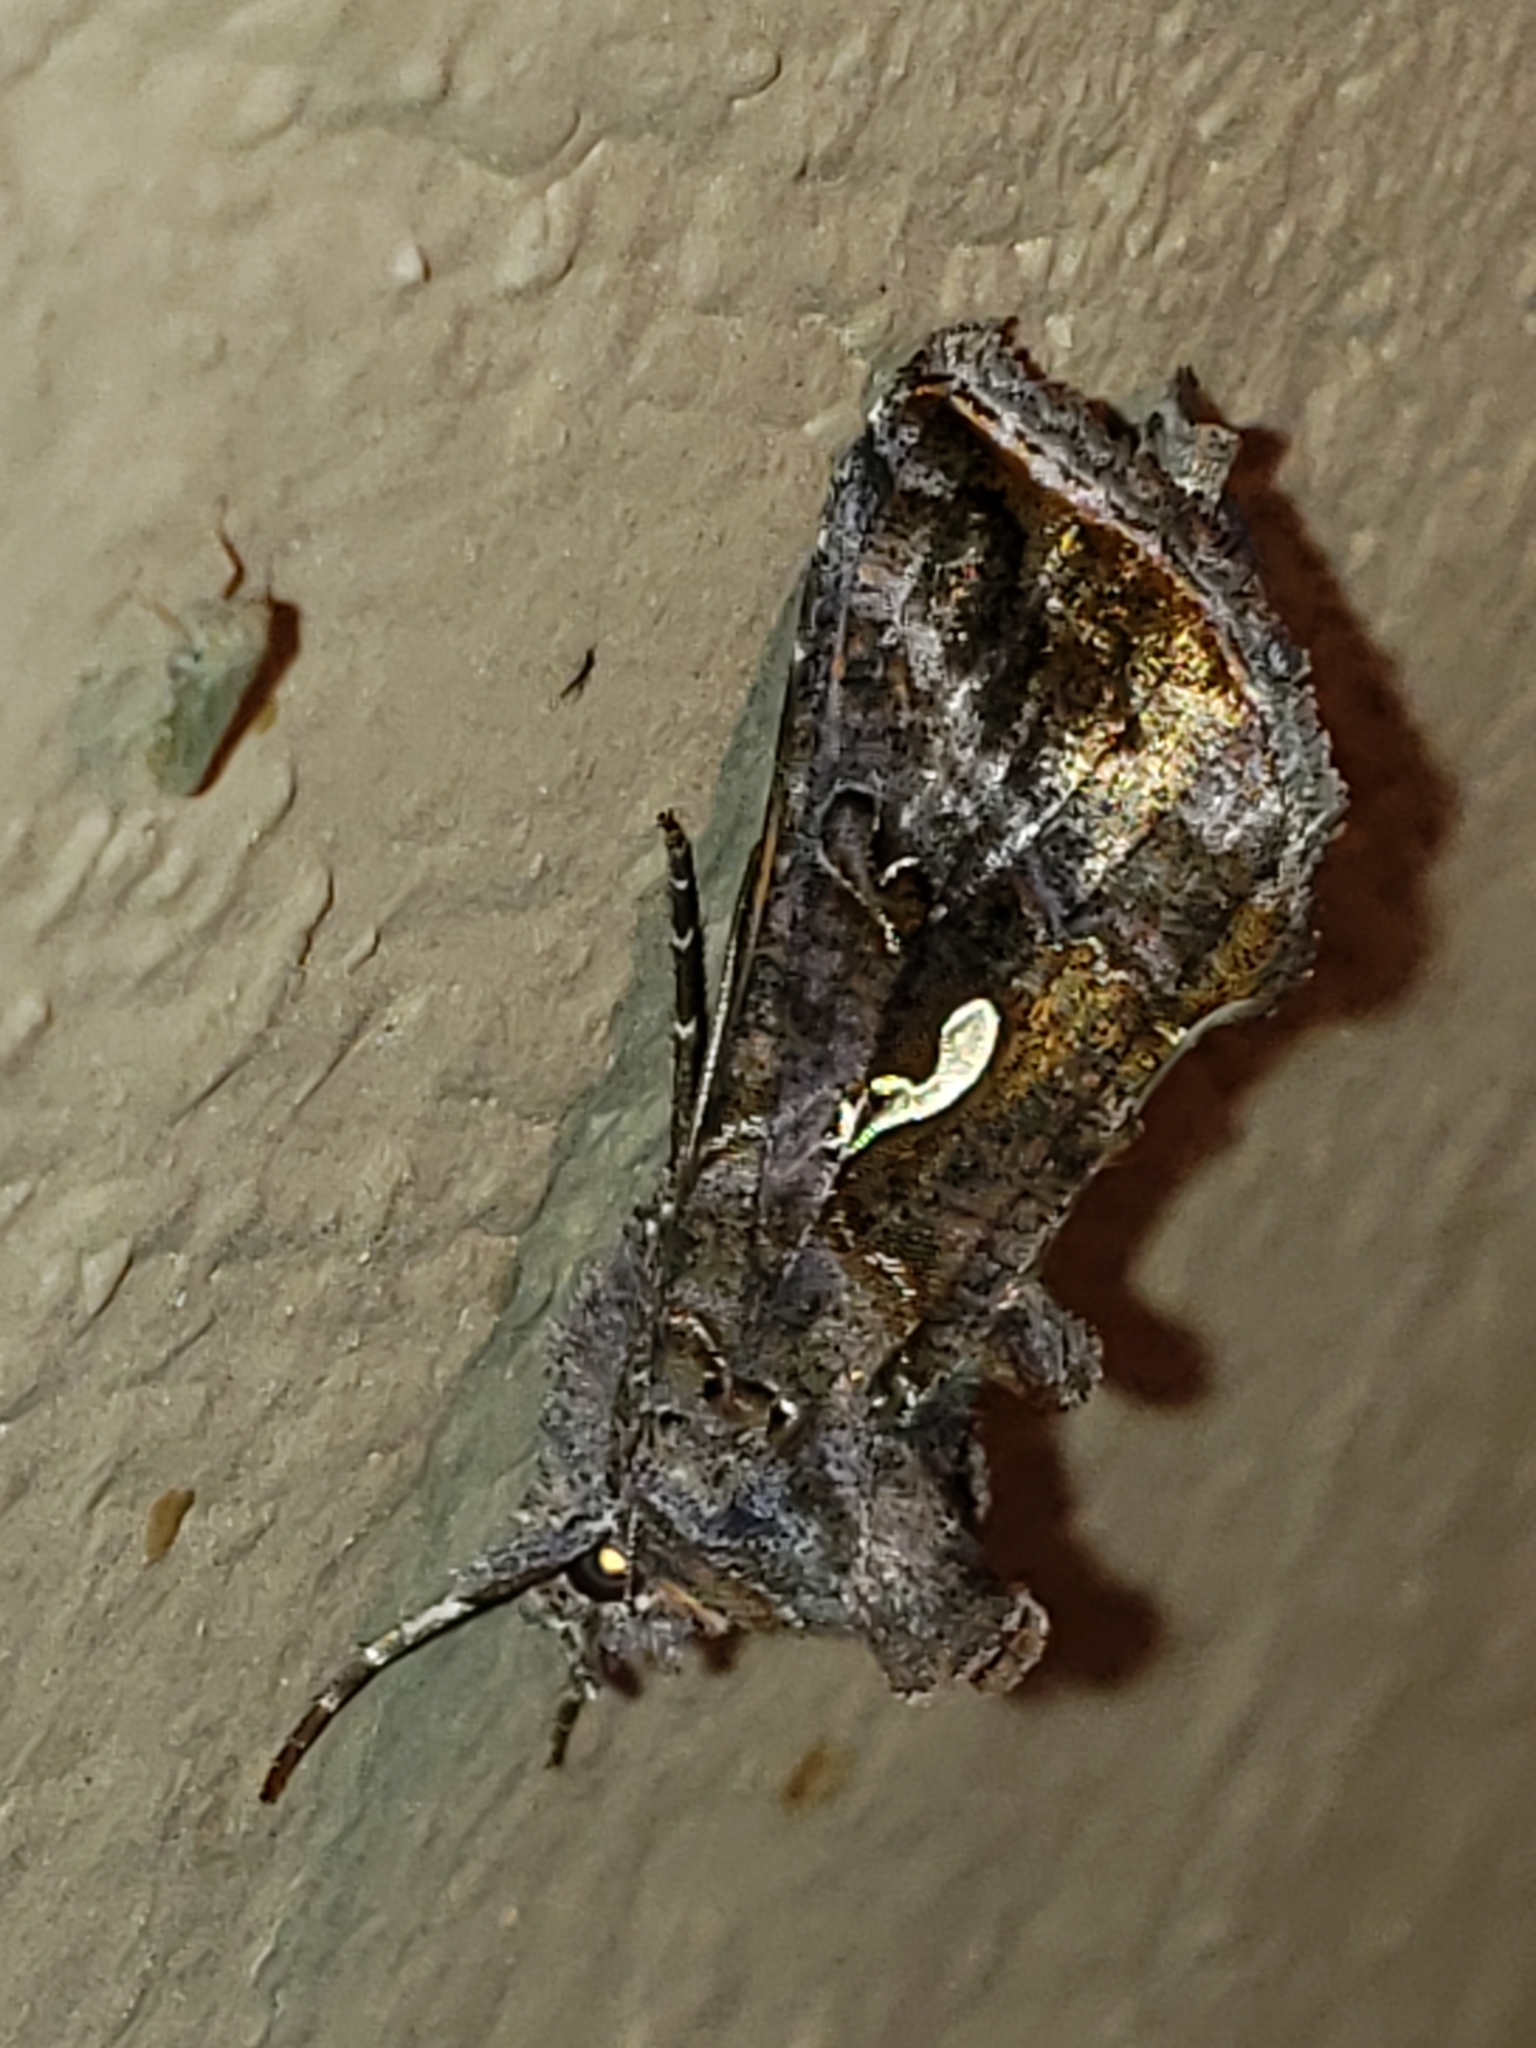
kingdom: Animalia
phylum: Arthropoda
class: Insecta
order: Lepidoptera
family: Noctuidae
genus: Autographa
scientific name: Autographa precationis
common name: Common looper moth
